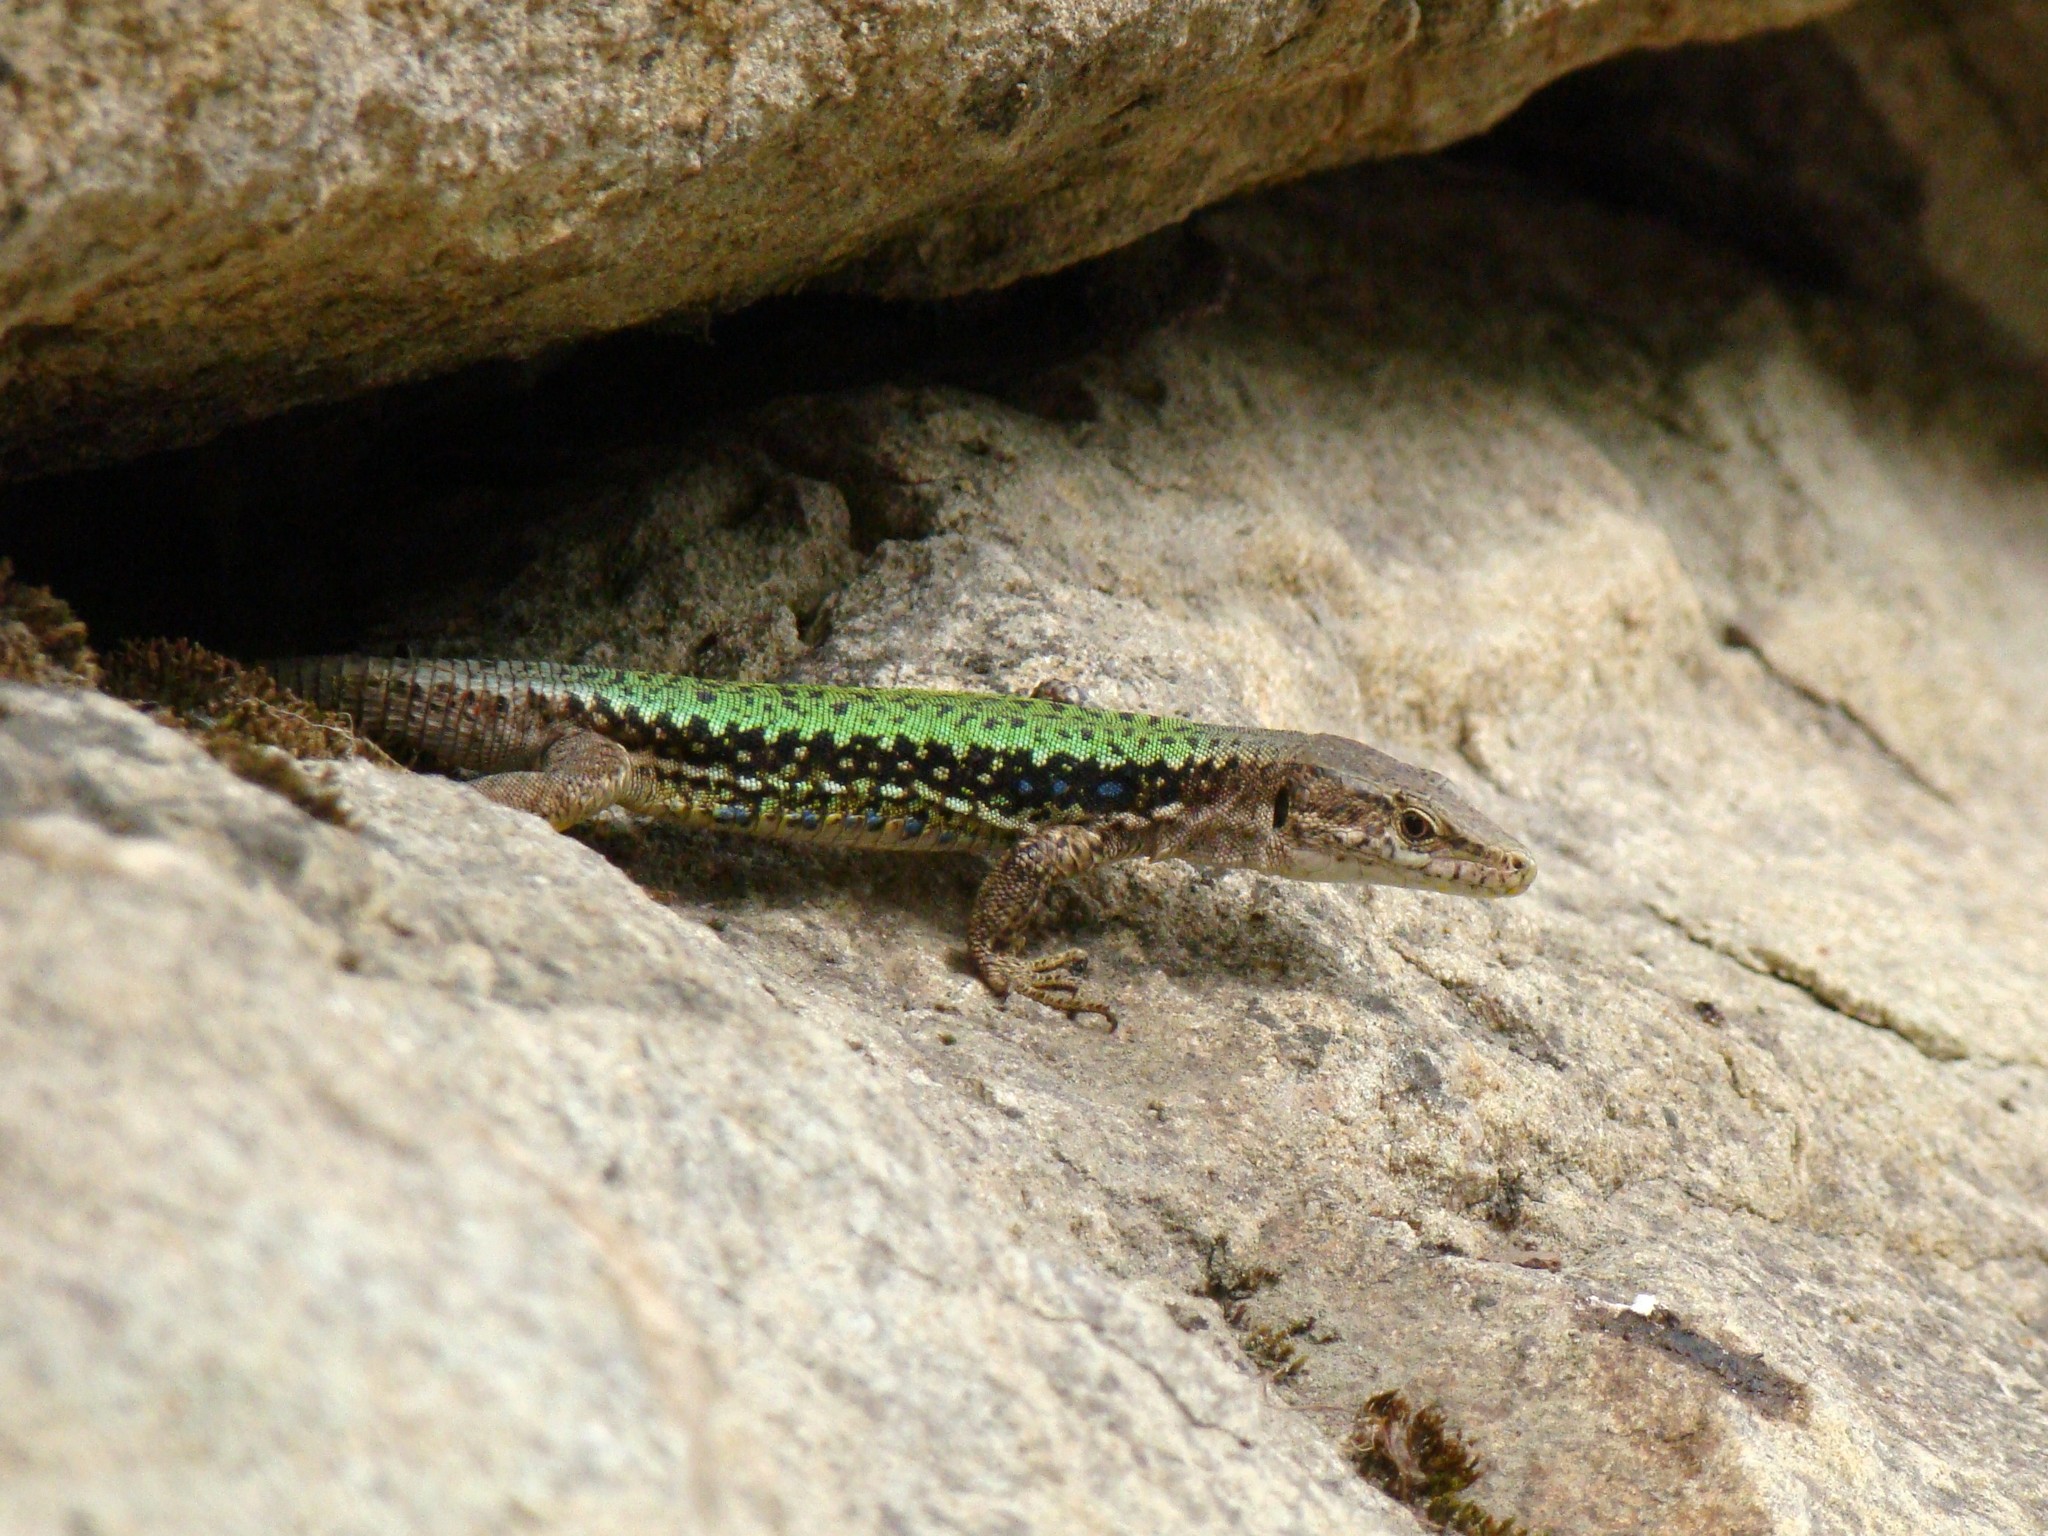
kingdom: Animalia
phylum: Chordata
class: Squamata
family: Lacertidae
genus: Darevskia
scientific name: Darevskia brauneri
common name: Brauner's rock lizard
